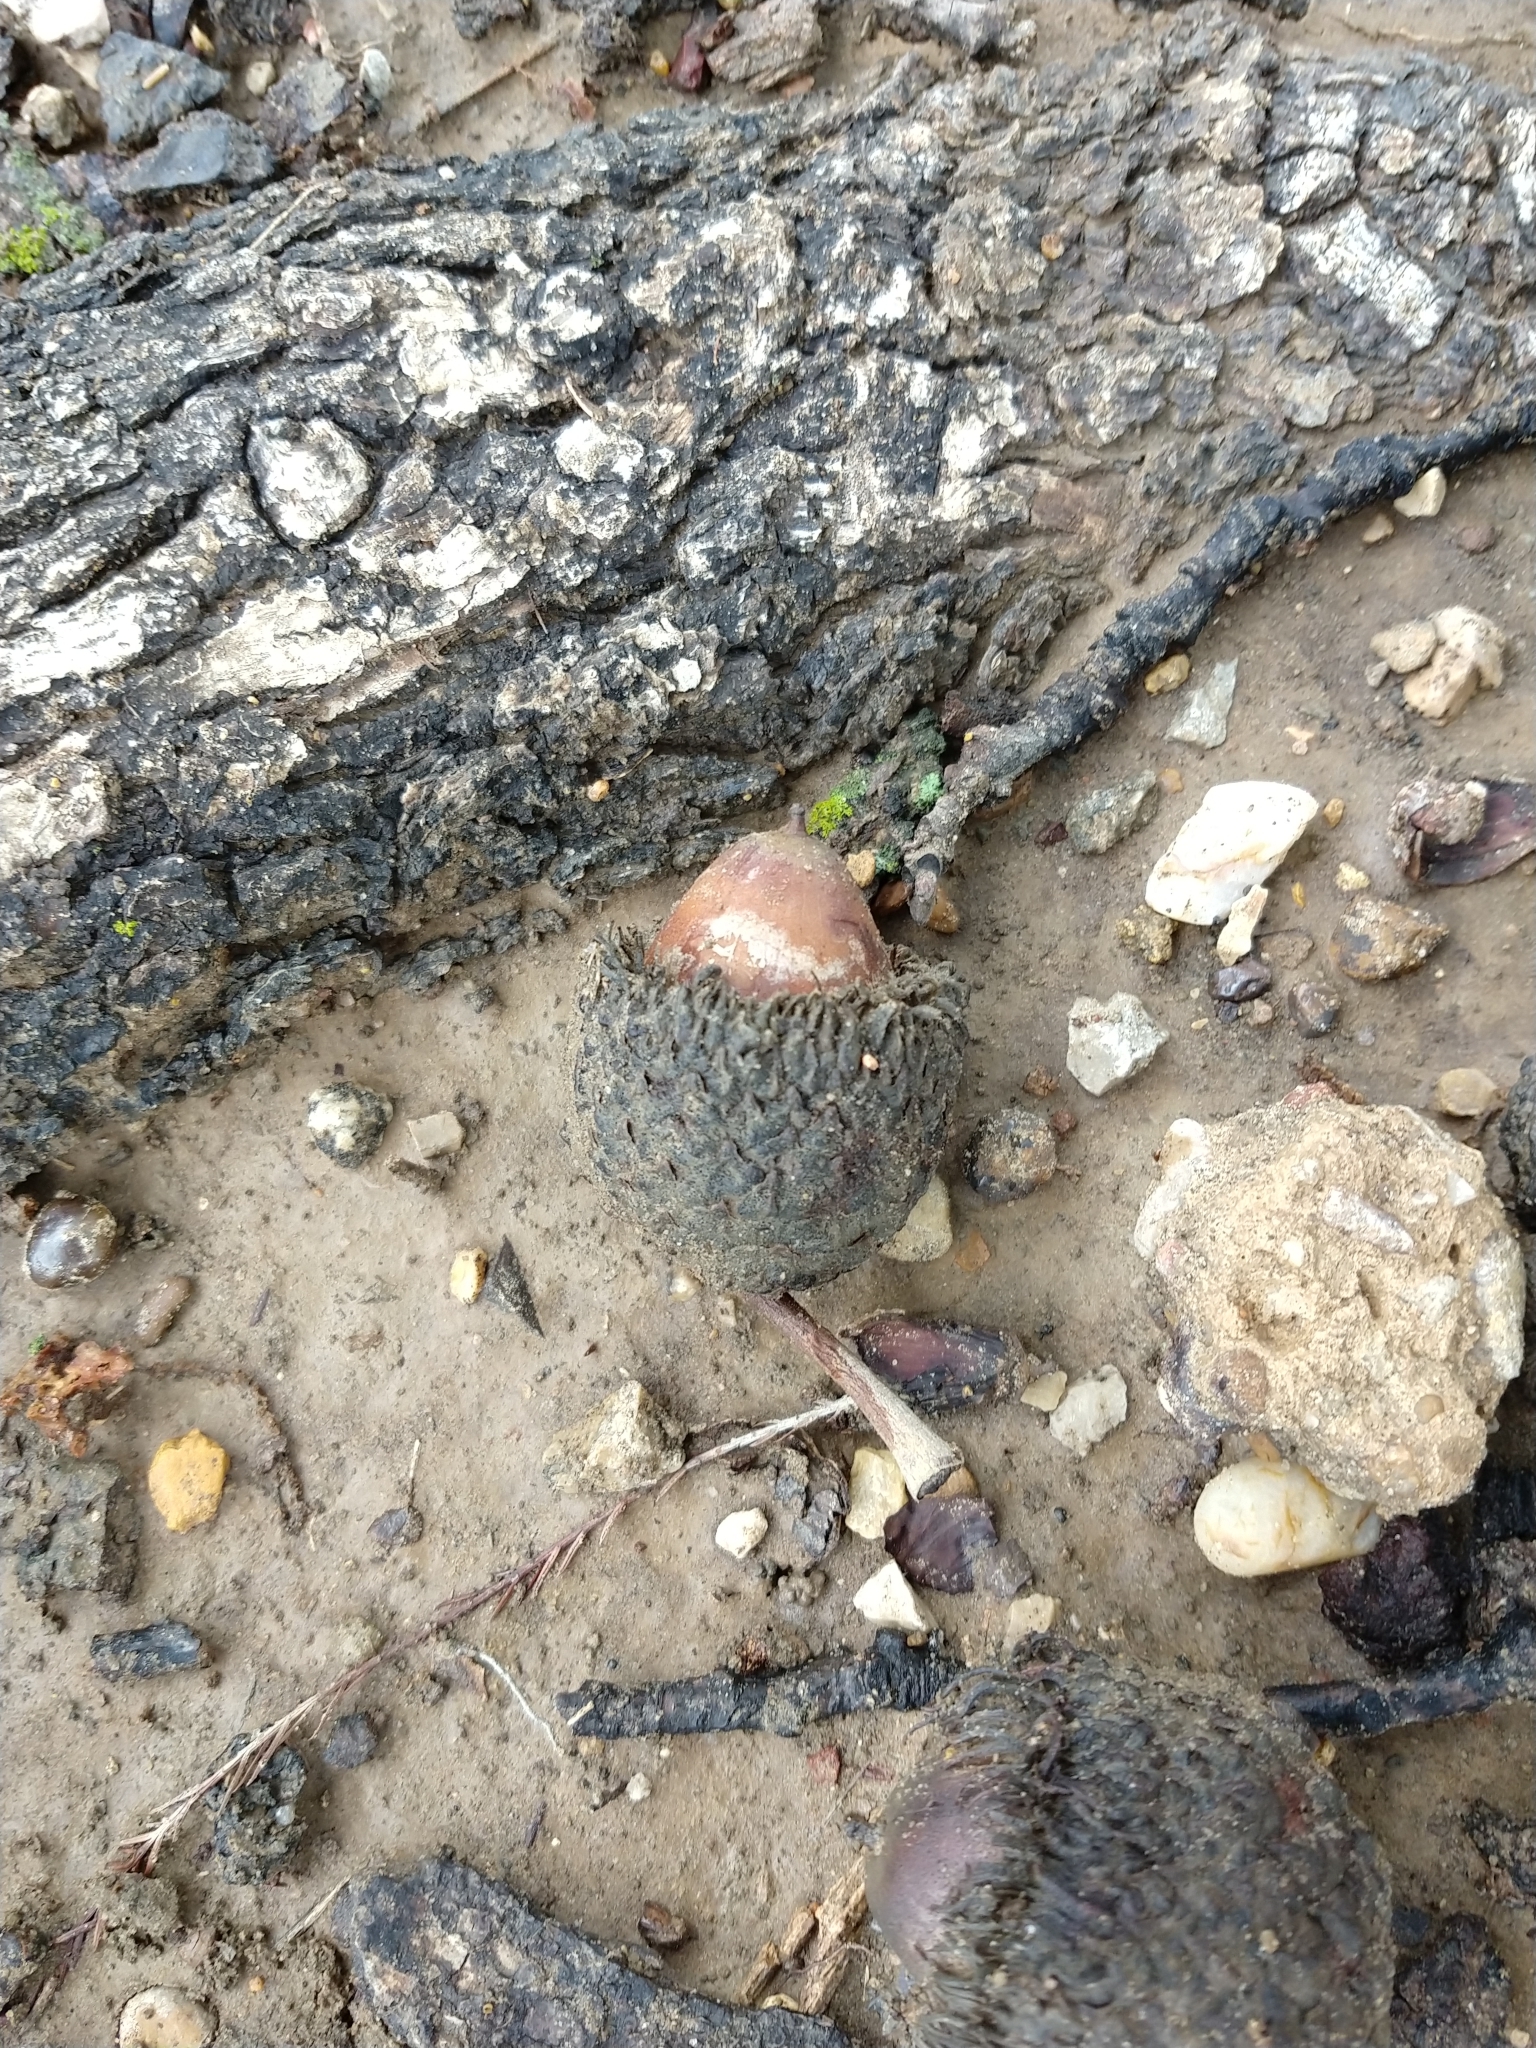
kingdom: Plantae
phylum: Tracheophyta
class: Magnoliopsida
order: Fagales
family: Fagaceae
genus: Quercus
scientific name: Quercus macrocarpa
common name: Bur oak
